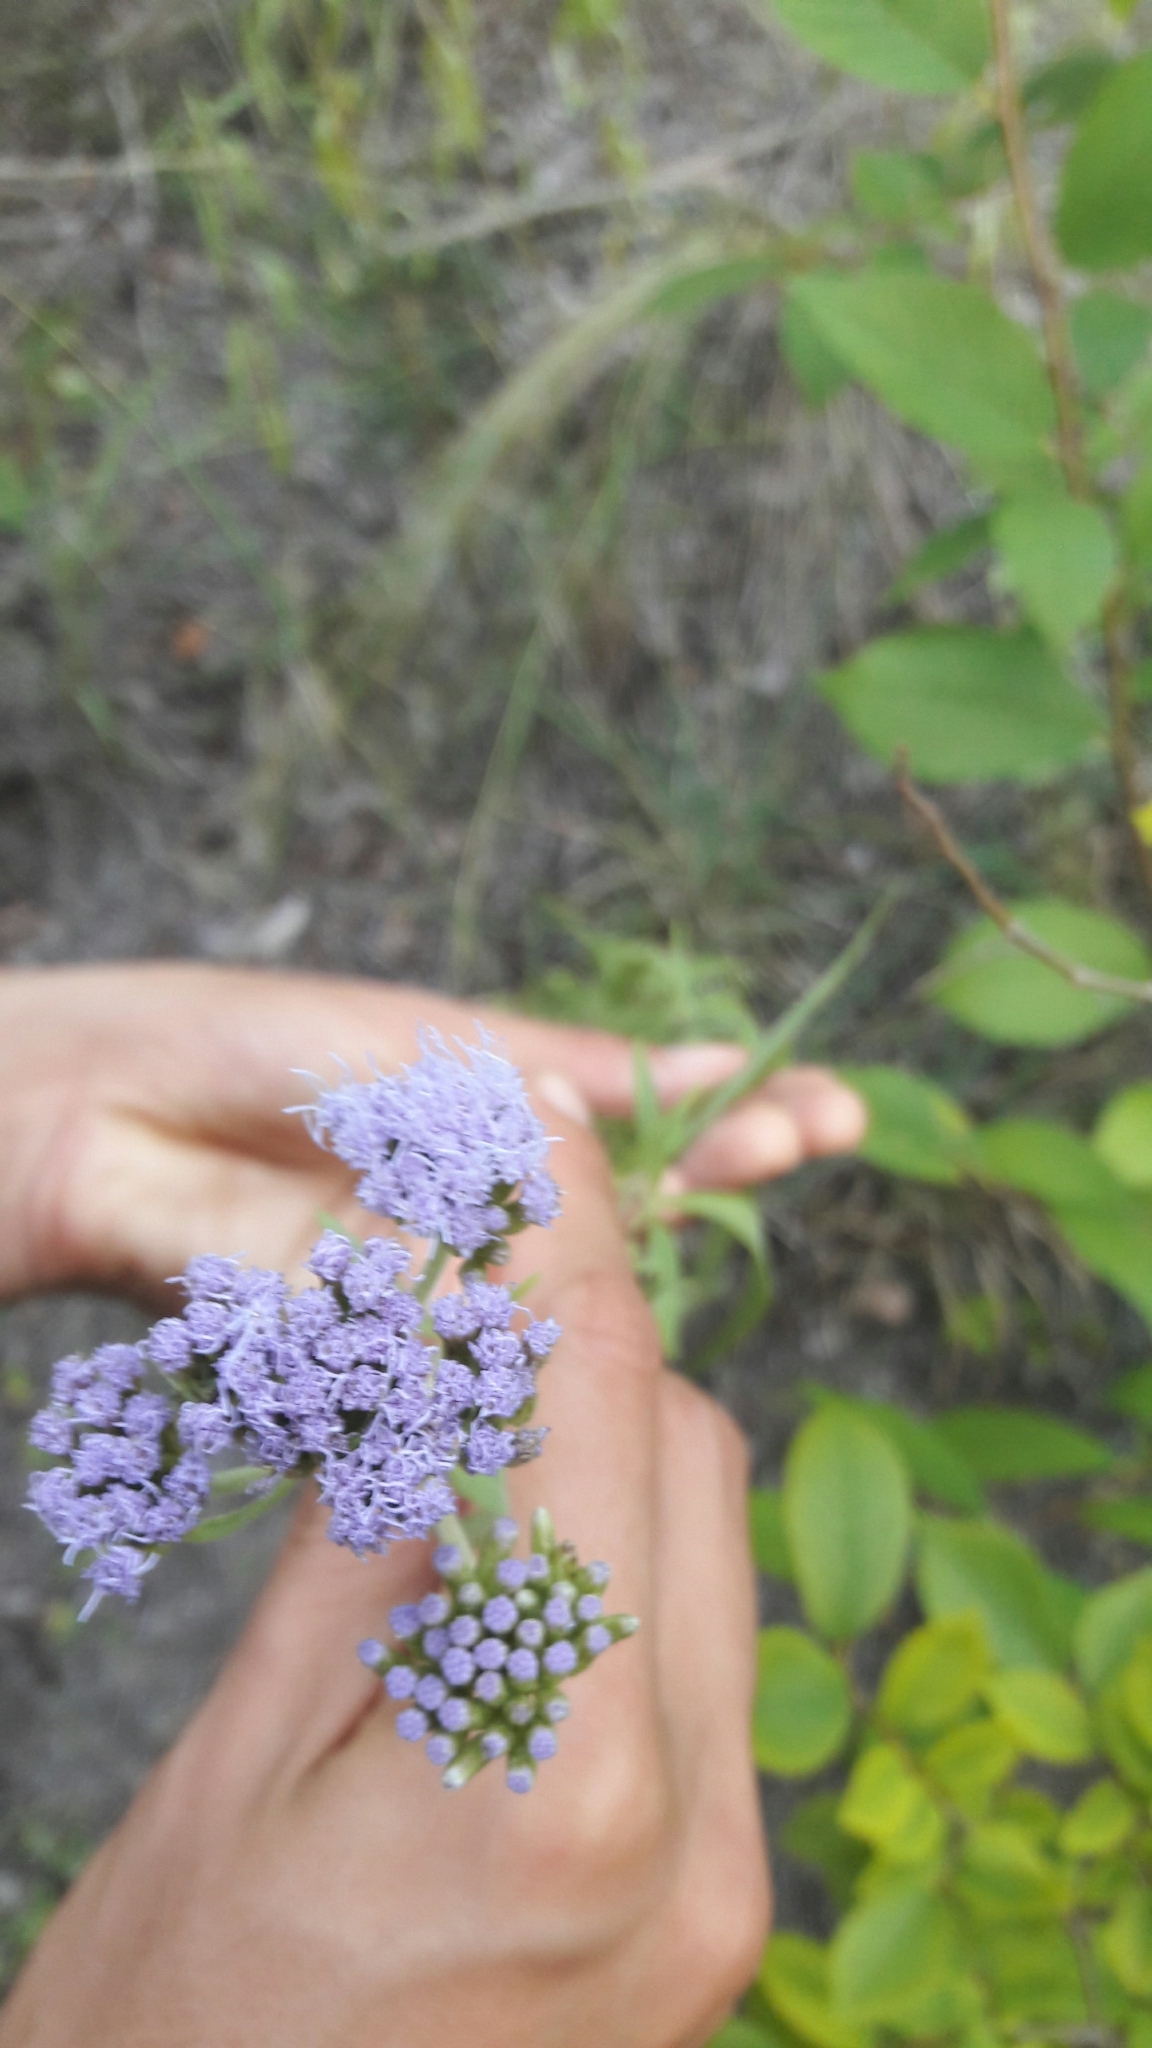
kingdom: Plantae
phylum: Tracheophyta
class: Magnoliopsida
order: Asterales
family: Asteraceae
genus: Chromolaena
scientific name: Chromolaena
